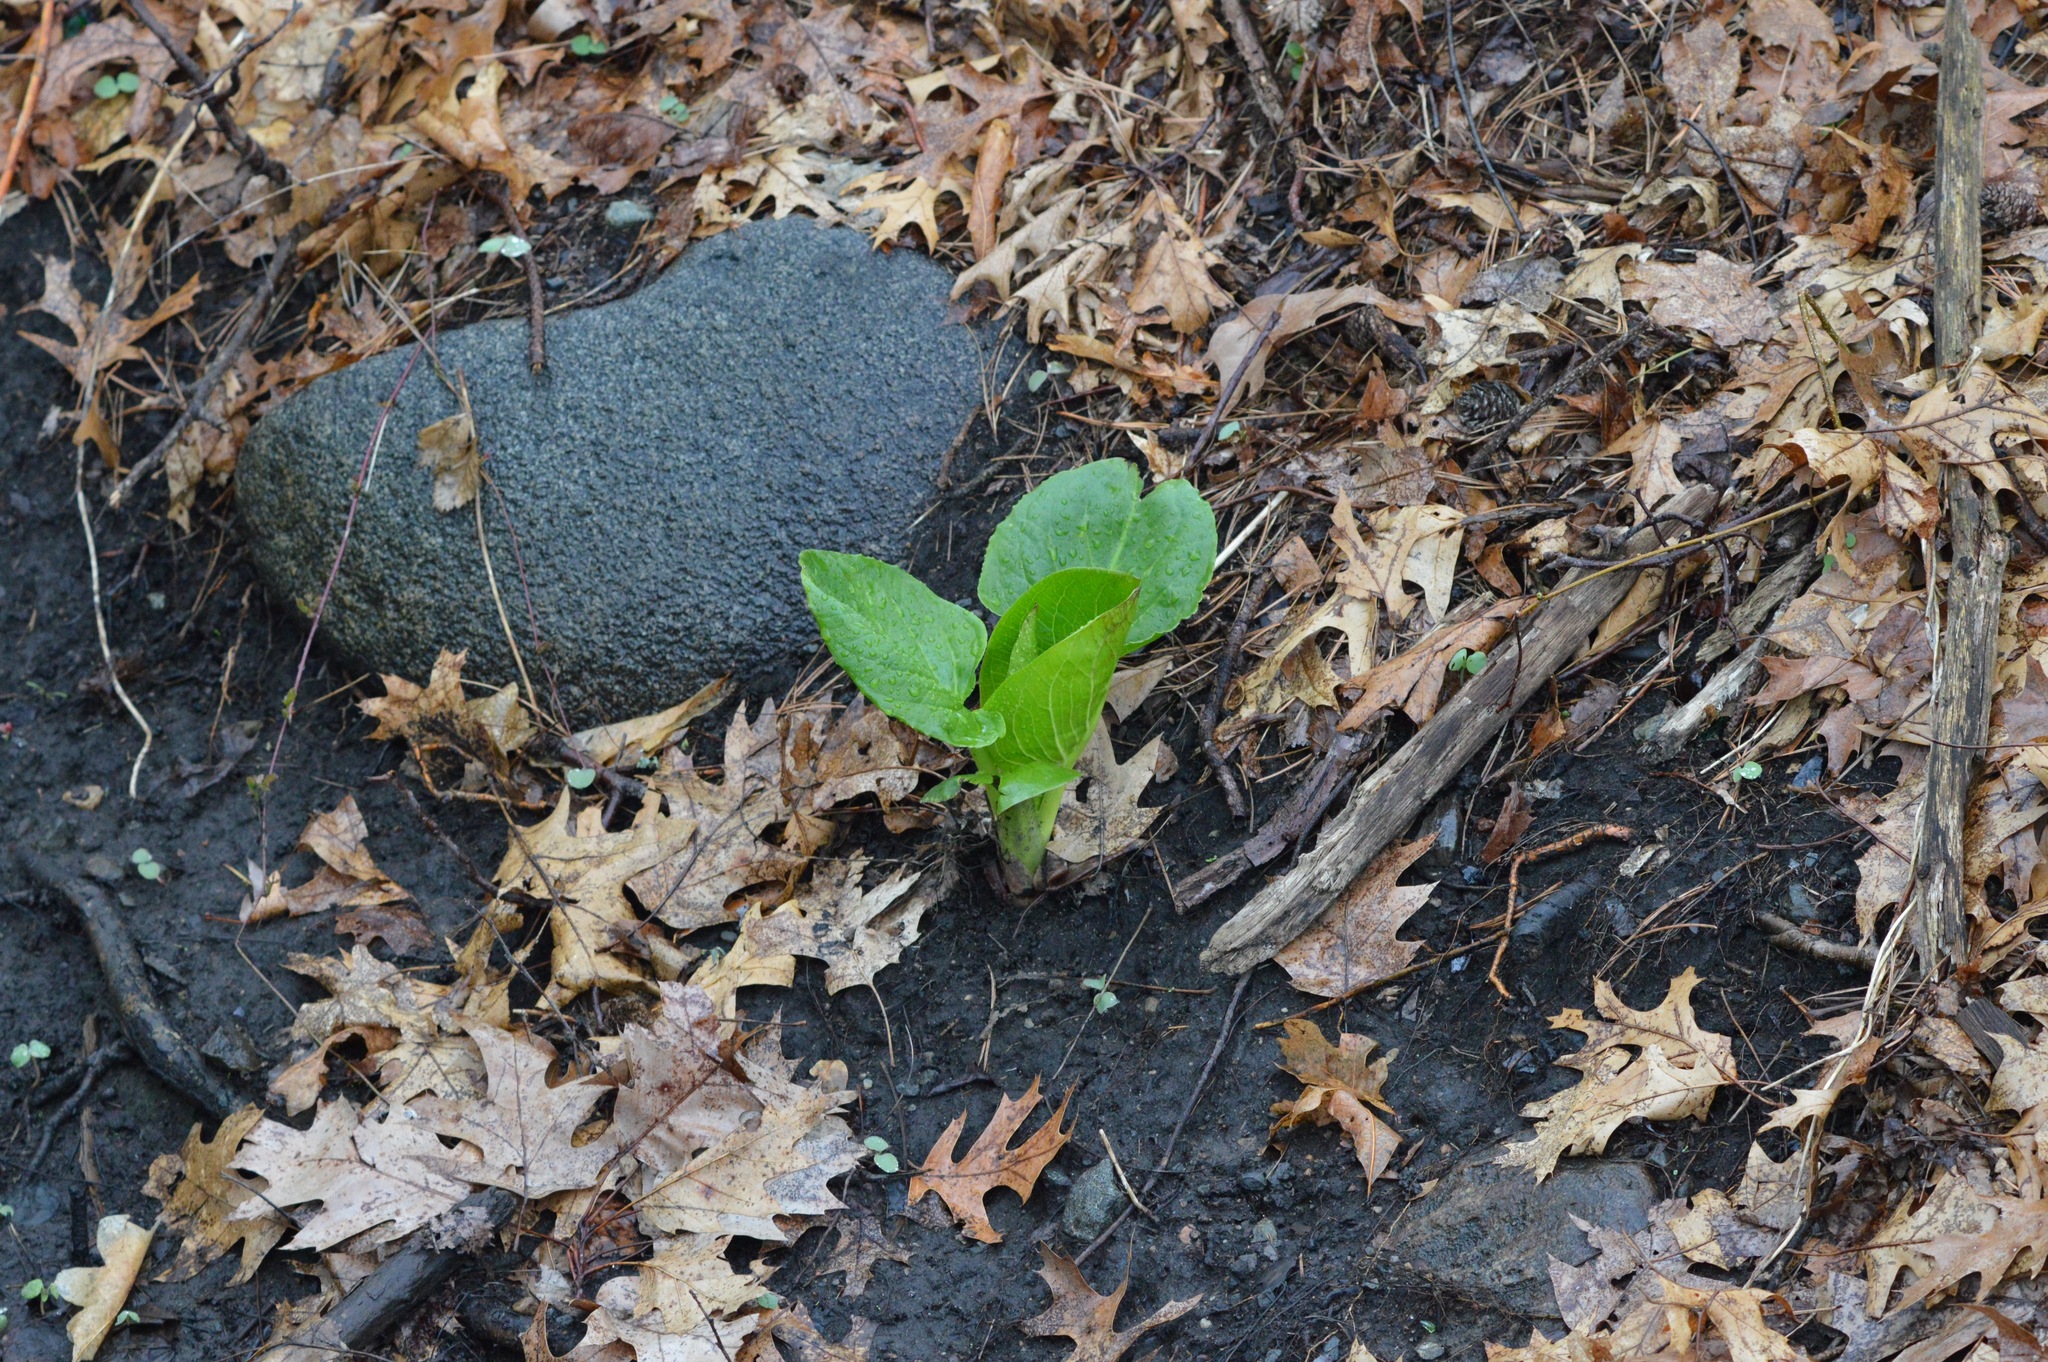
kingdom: Plantae
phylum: Tracheophyta
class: Liliopsida
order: Alismatales
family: Araceae
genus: Symplocarpus
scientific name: Symplocarpus foetidus
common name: Eastern skunk cabbage
